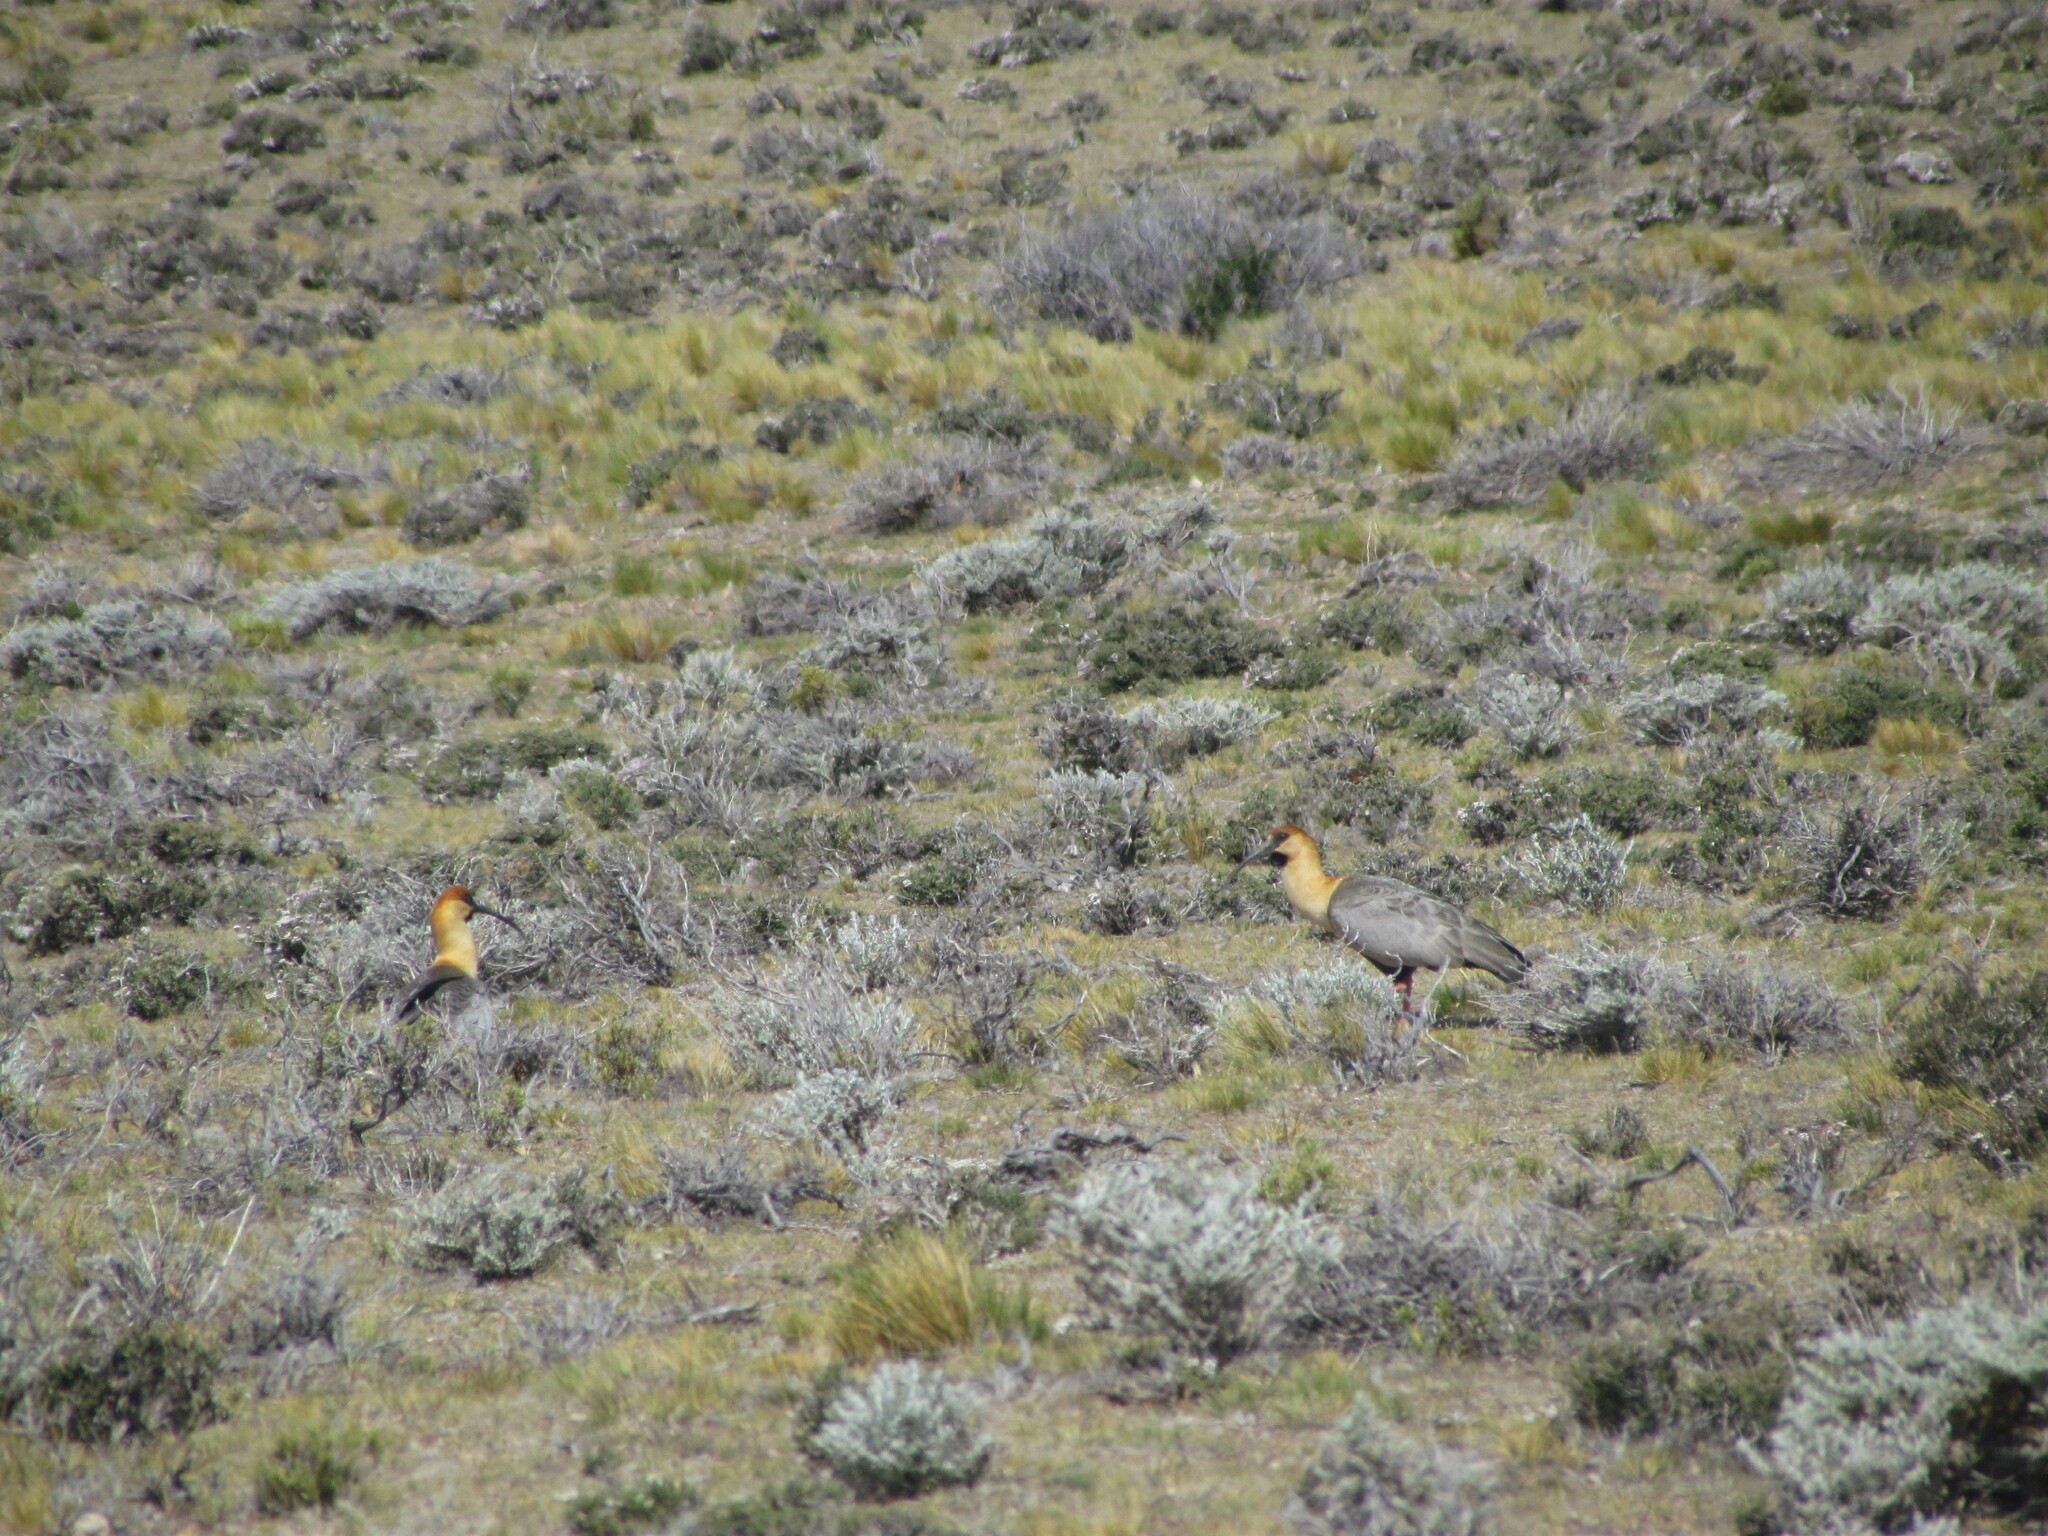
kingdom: Animalia
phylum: Chordata
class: Aves
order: Pelecaniformes
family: Threskiornithidae
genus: Theristicus
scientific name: Theristicus melanopis
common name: Black-faced ibis
